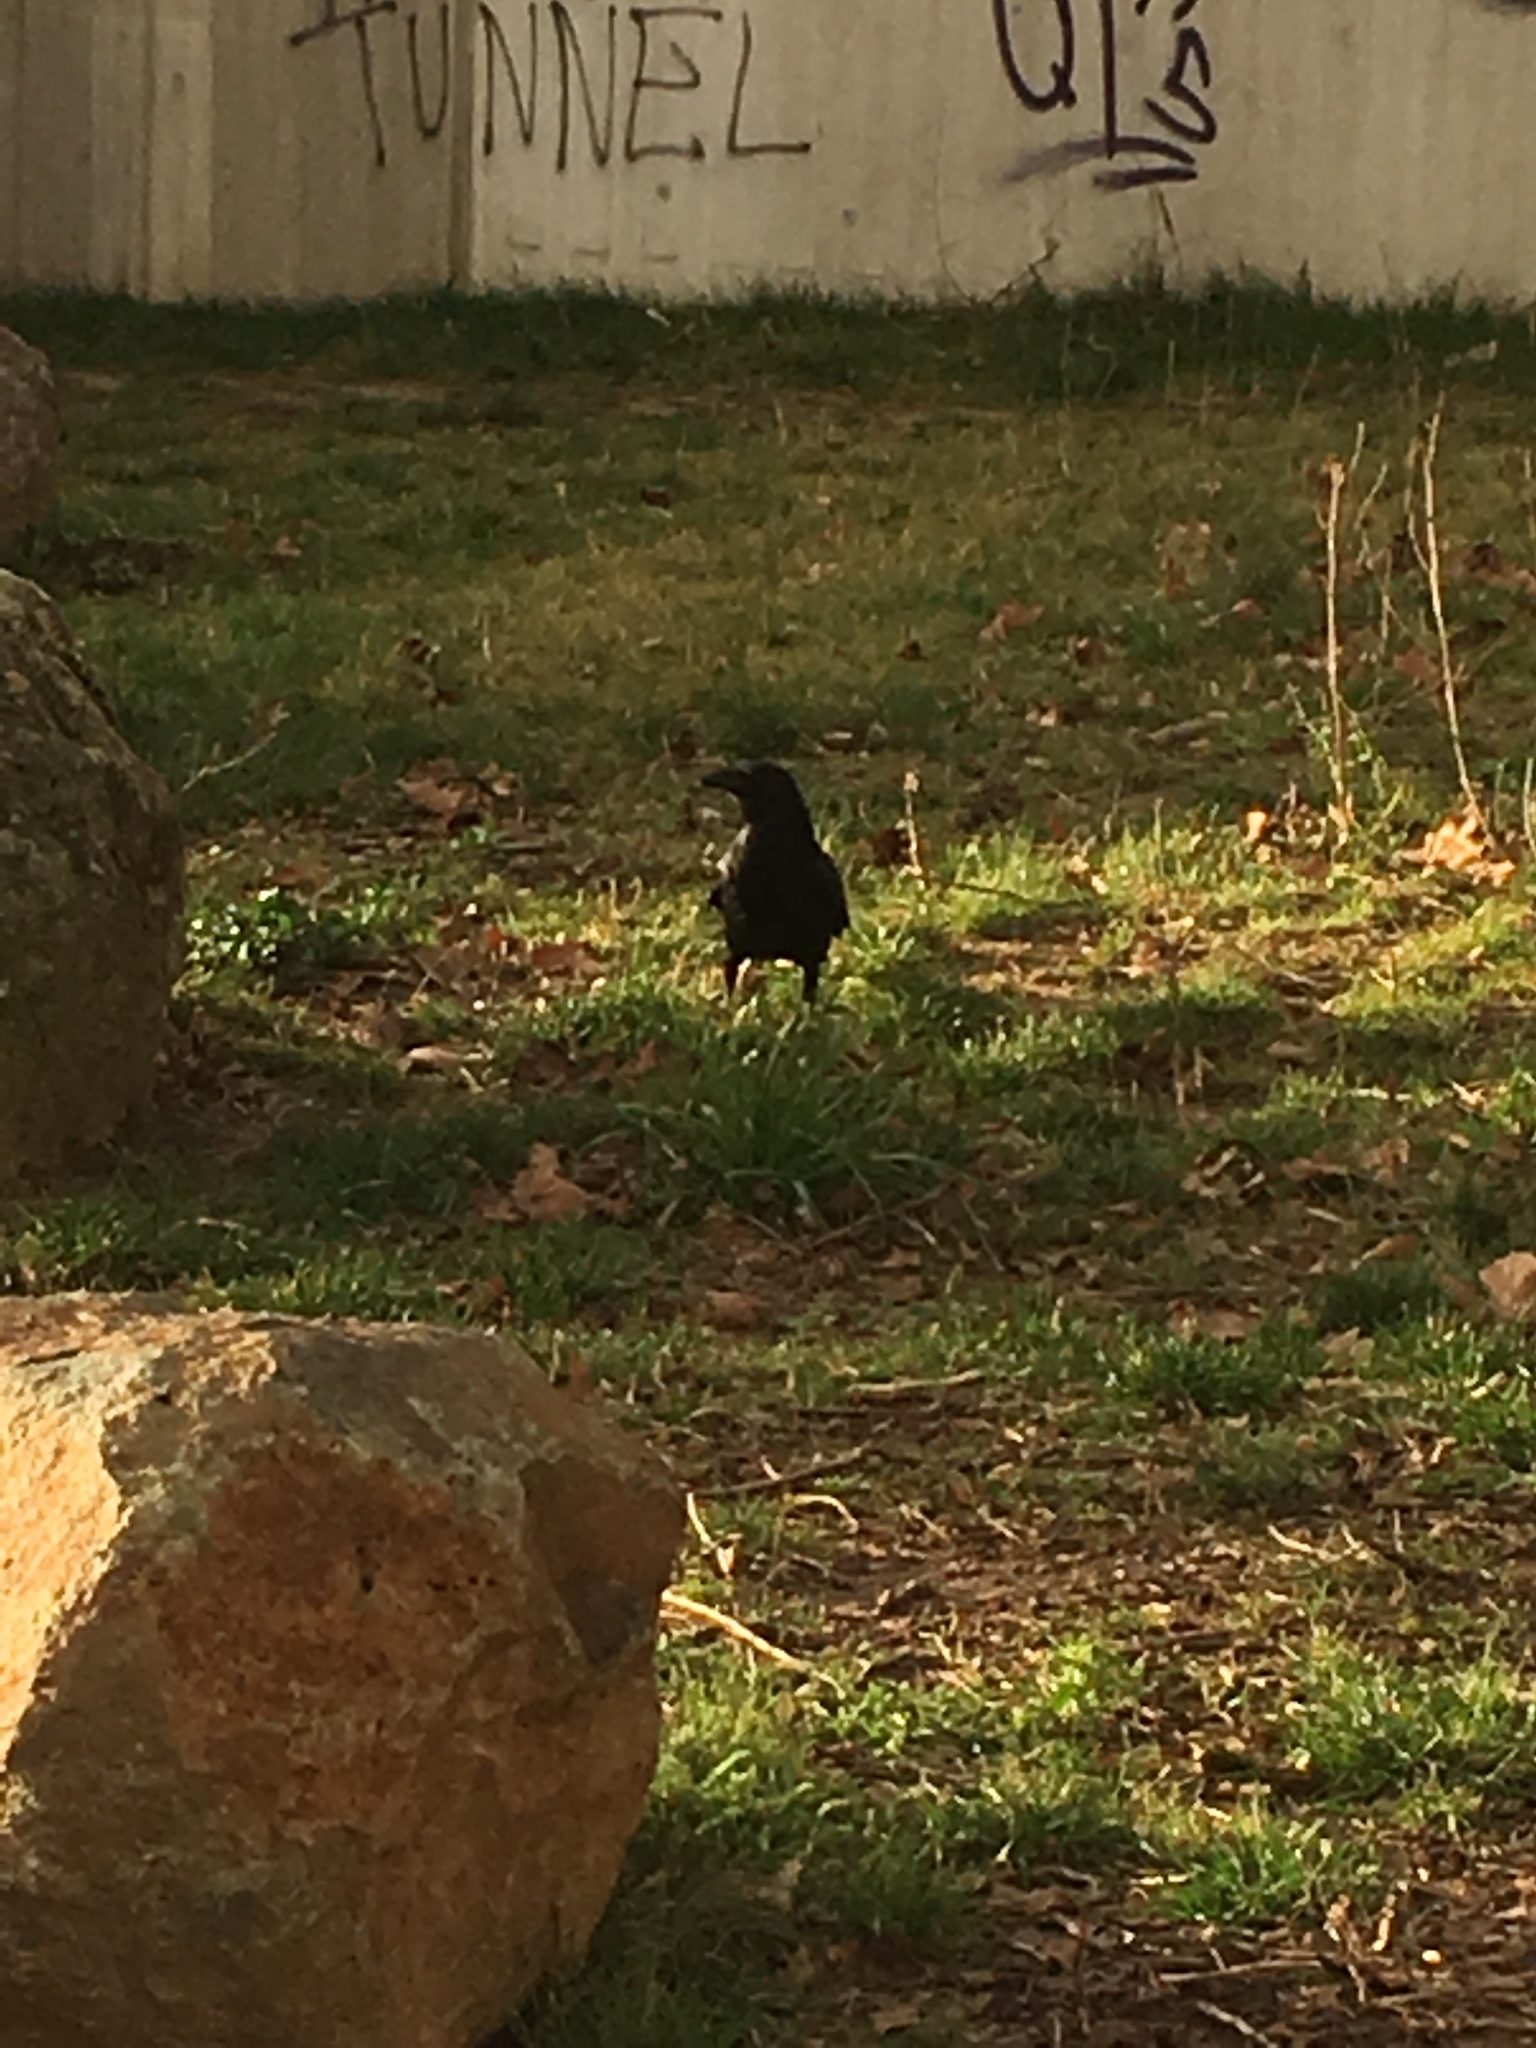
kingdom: Animalia
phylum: Chordata
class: Aves
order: Passeriformes
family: Corvidae
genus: Corvus
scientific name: Corvus corone
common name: Carrion crow
